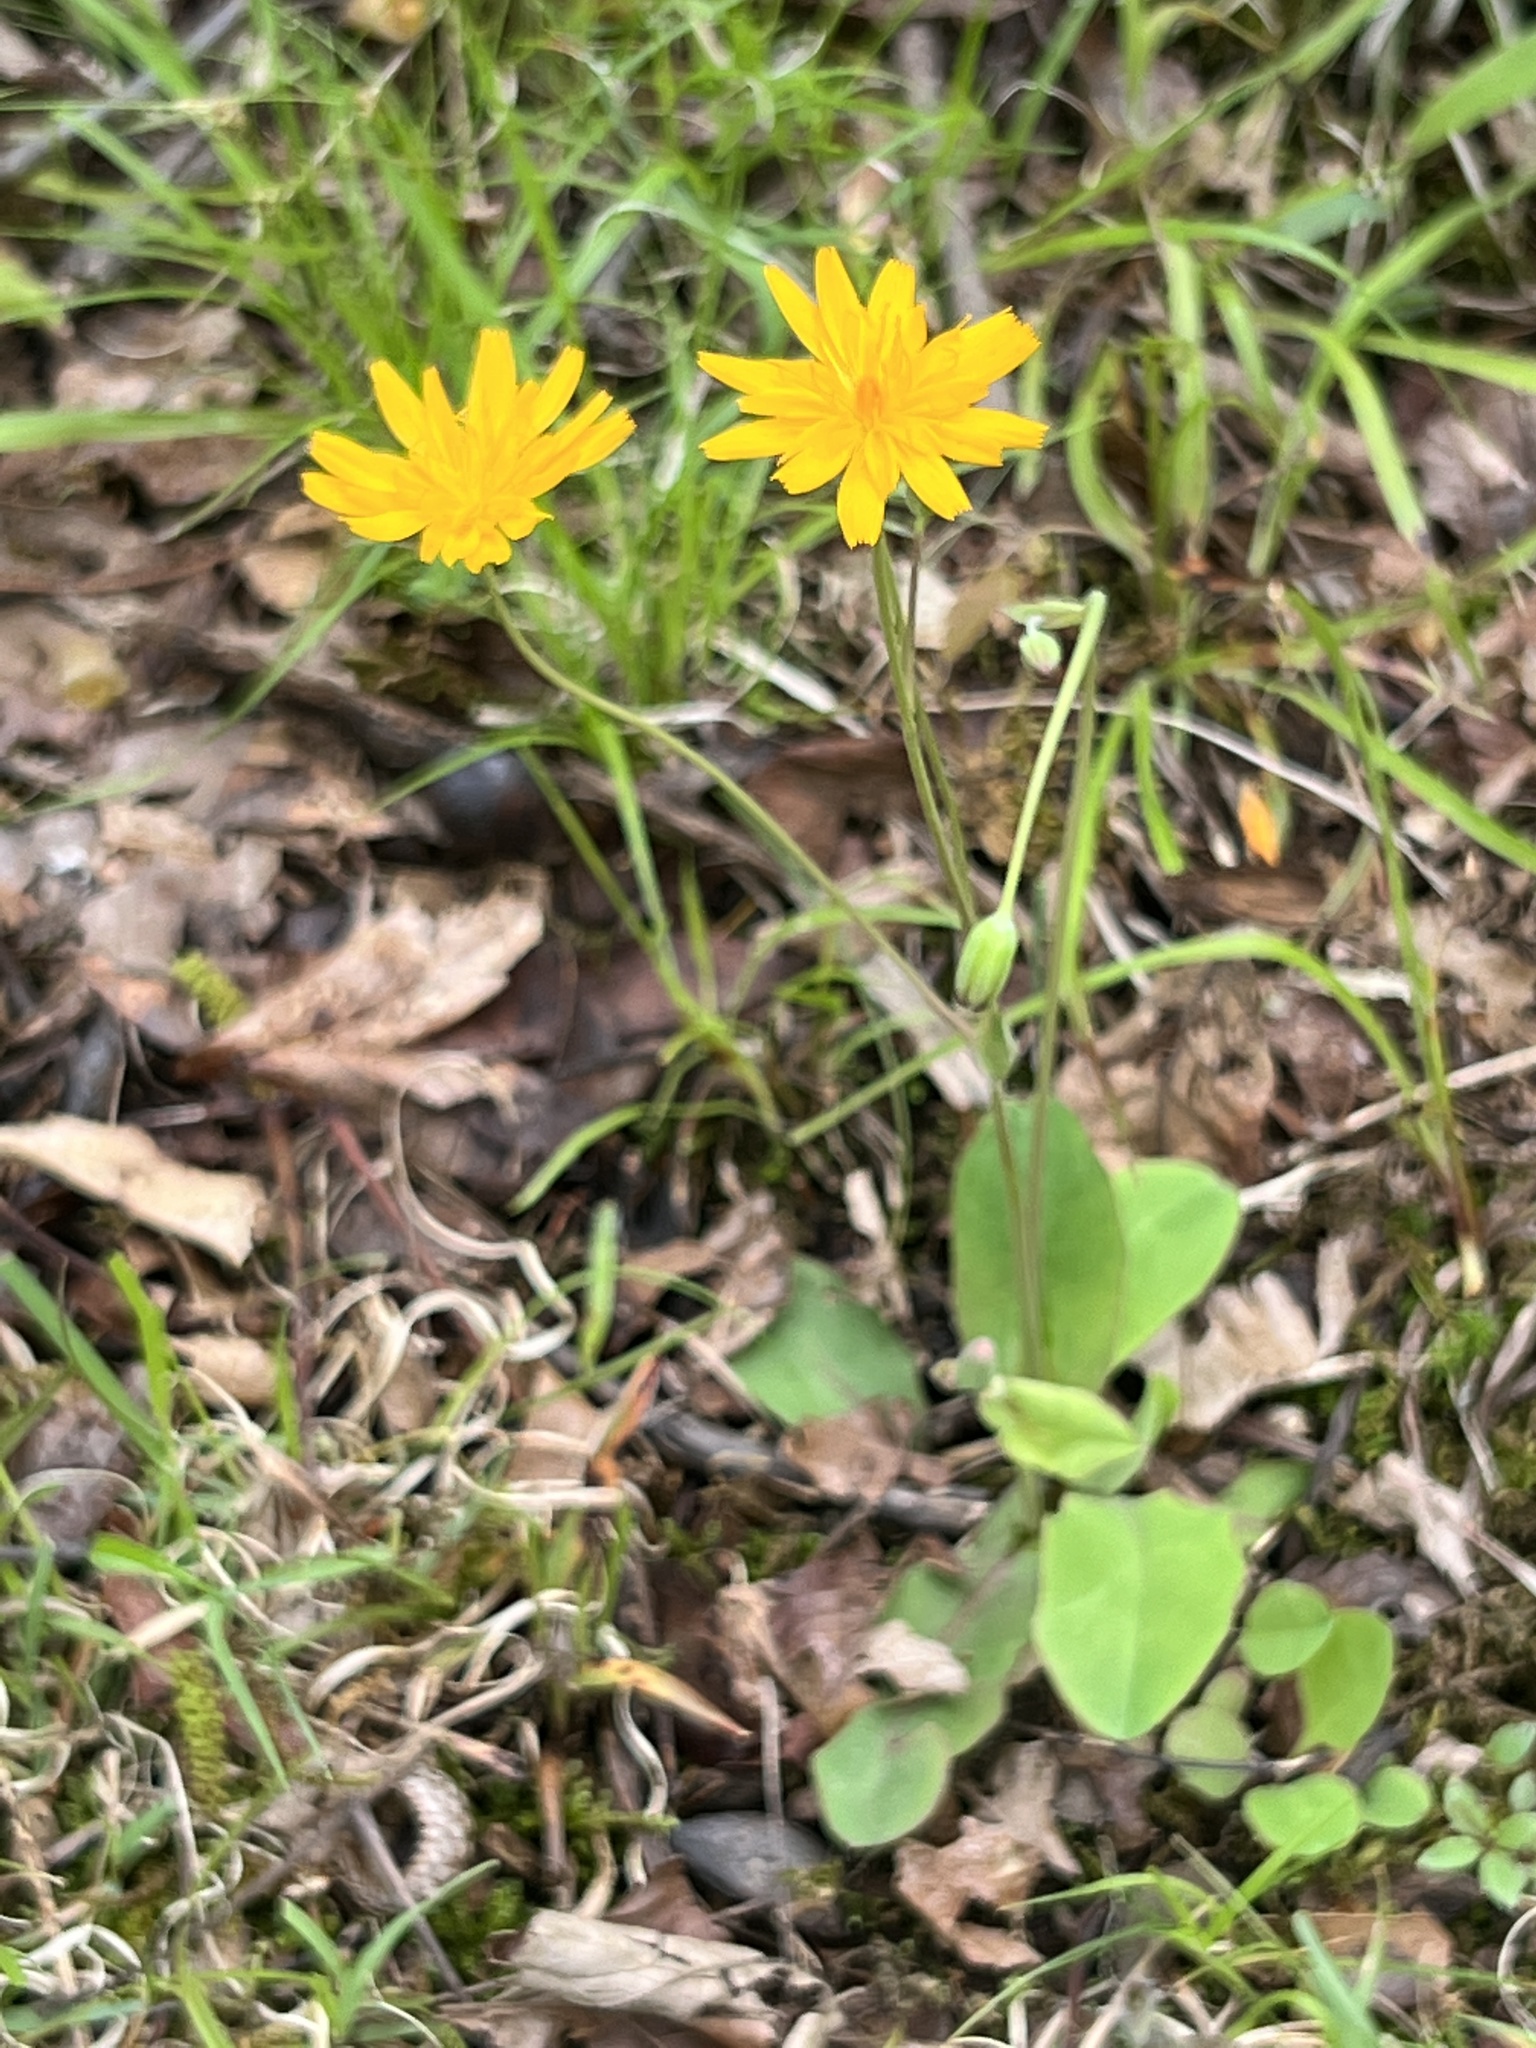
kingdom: Plantae
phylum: Tracheophyta
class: Magnoliopsida
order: Asterales
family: Asteraceae
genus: Krigia
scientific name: Krigia biflora
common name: Orange dwarf-dandelion
